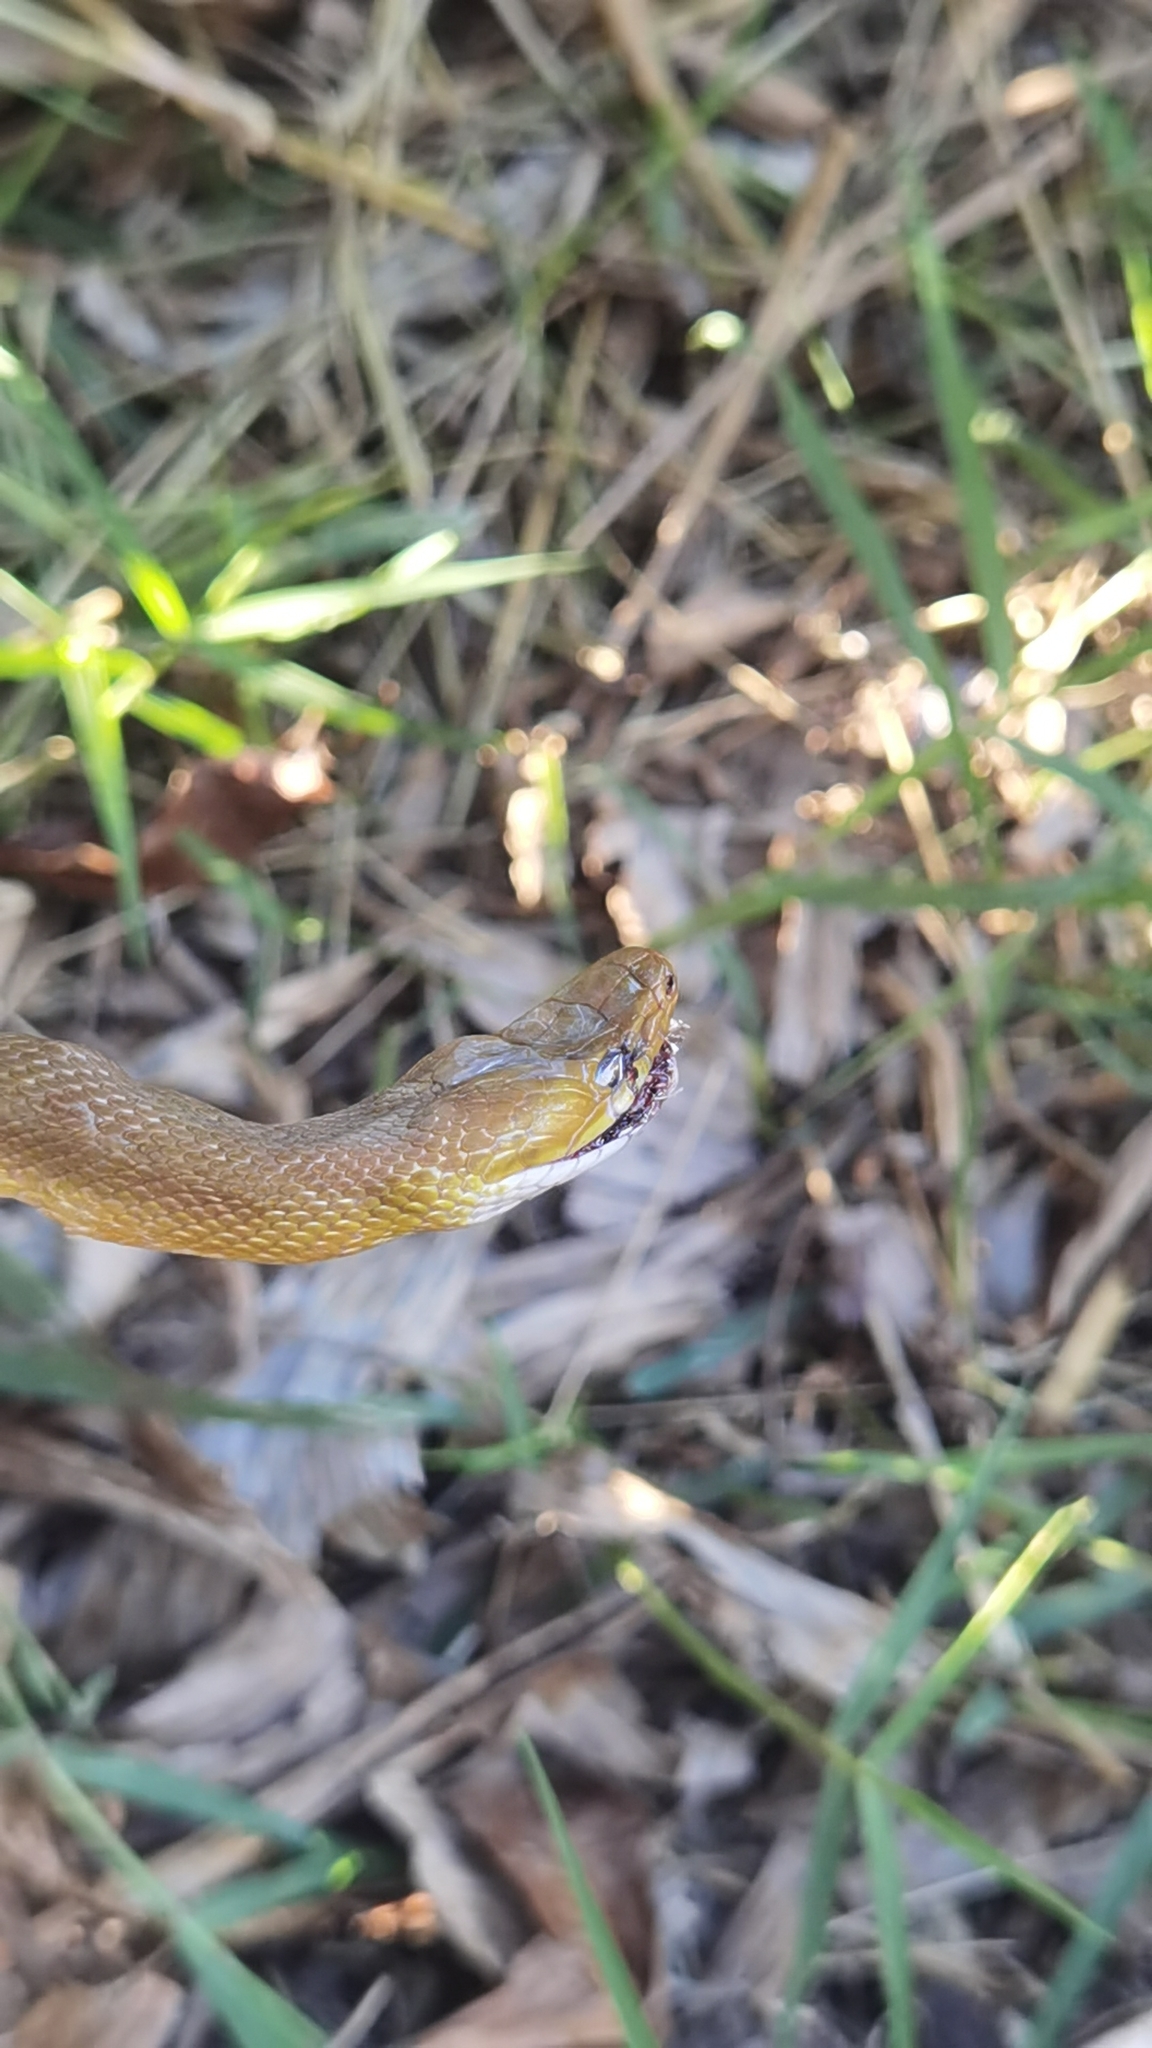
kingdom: Animalia
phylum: Chordata
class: Squamata
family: Colubridae
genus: Senticolis
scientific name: Senticolis triaspis
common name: Green rat snake
